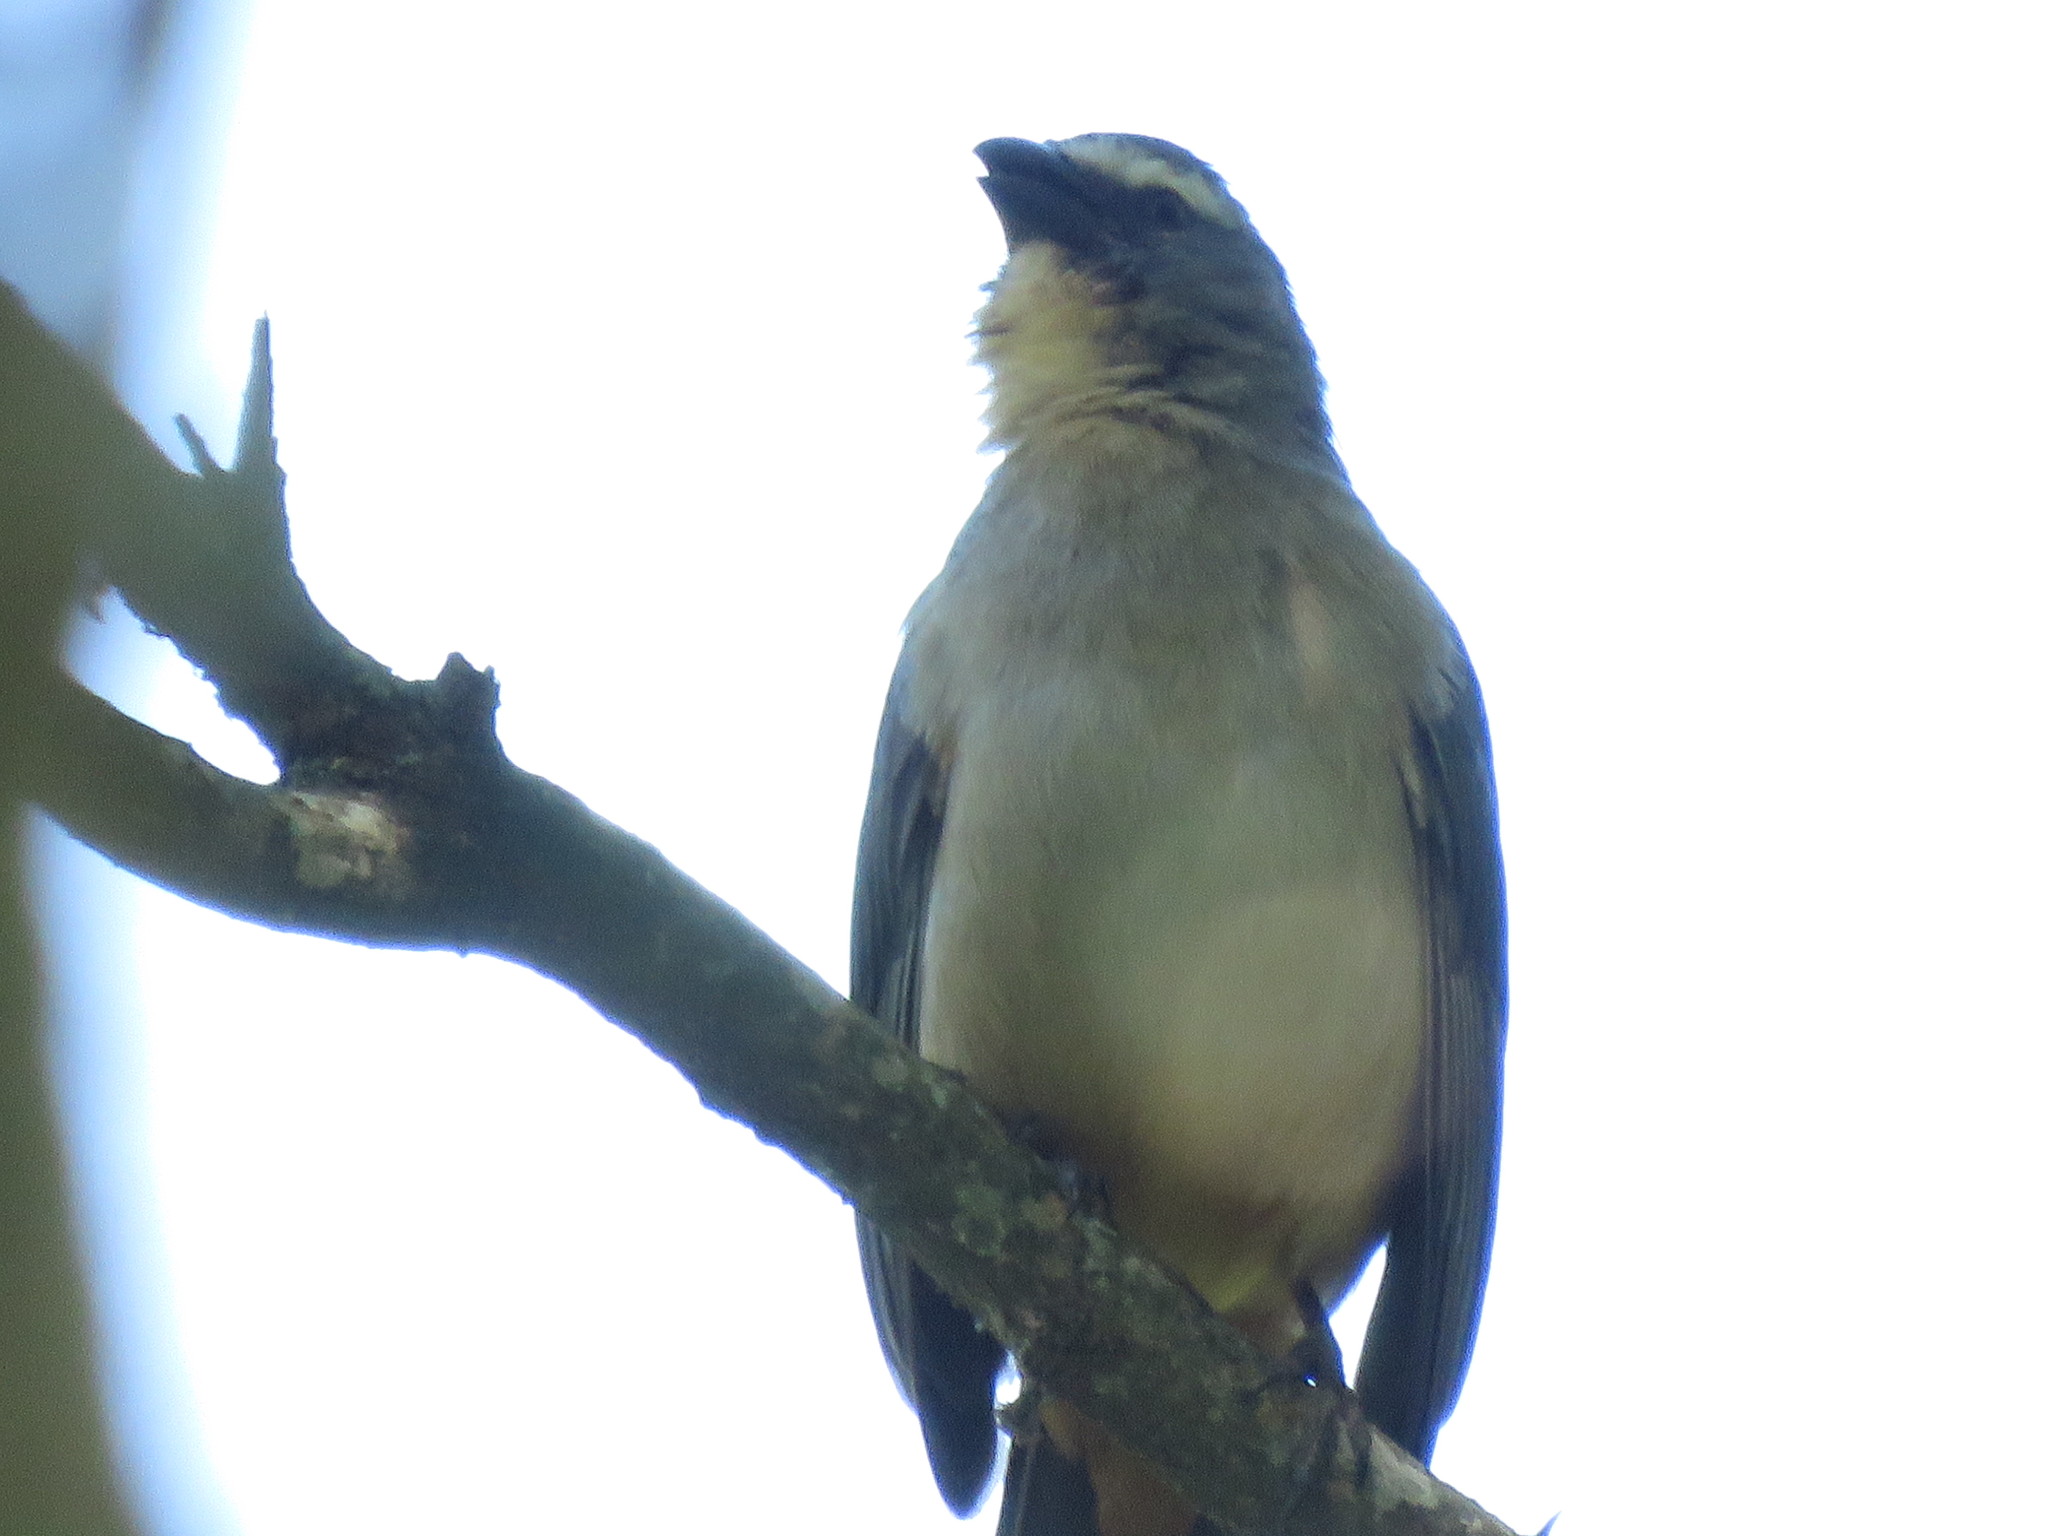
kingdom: Animalia
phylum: Chordata
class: Aves
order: Passeriformes
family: Thraupidae
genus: Saltator
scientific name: Saltator coerulescens
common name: Grayish saltator
